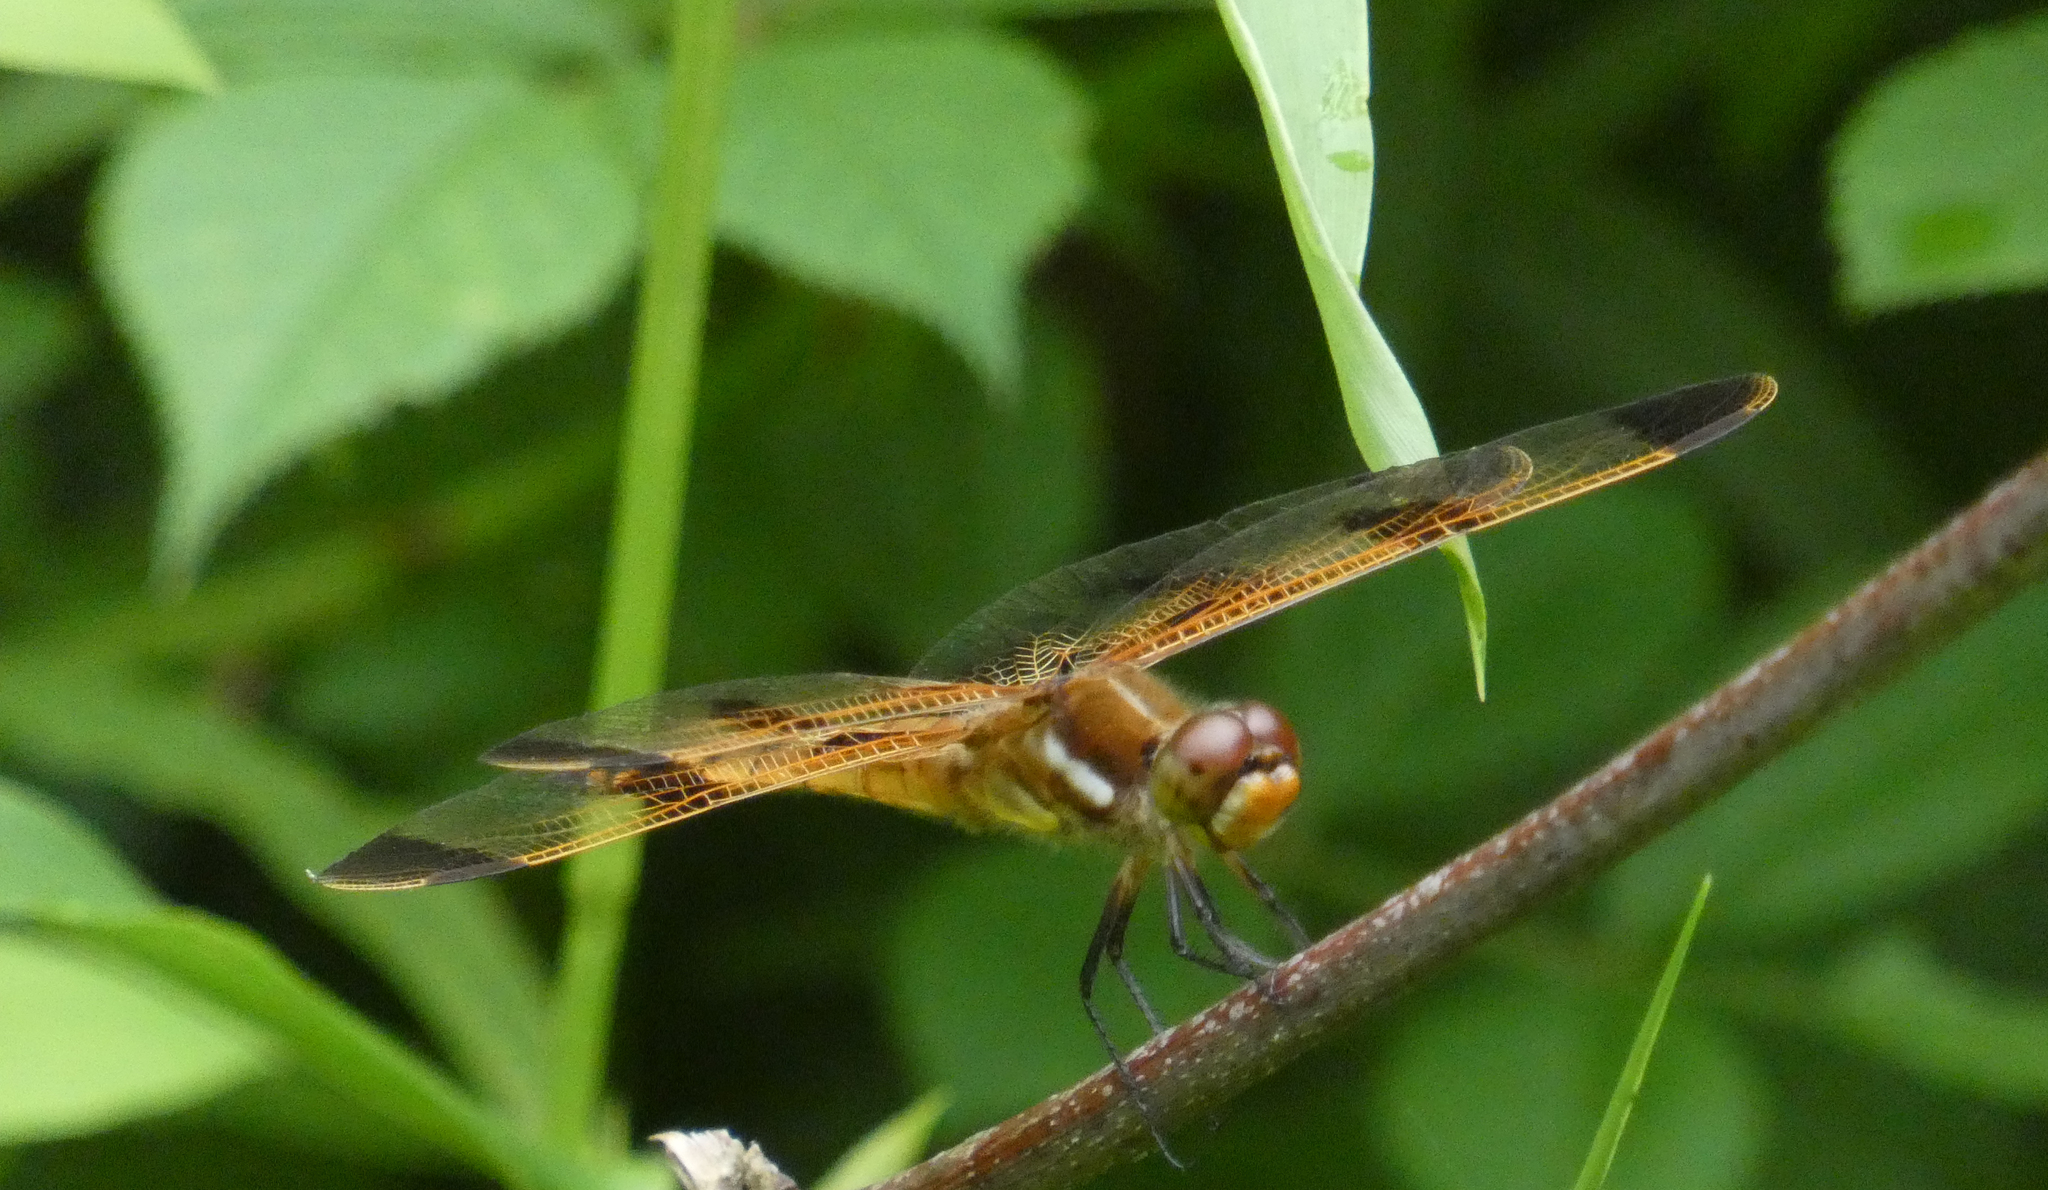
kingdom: Animalia
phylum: Arthropoda
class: Insecta
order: Odonata
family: Libellulidae
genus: Libellula
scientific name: Libellula semifasciata
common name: Painted skimmer
